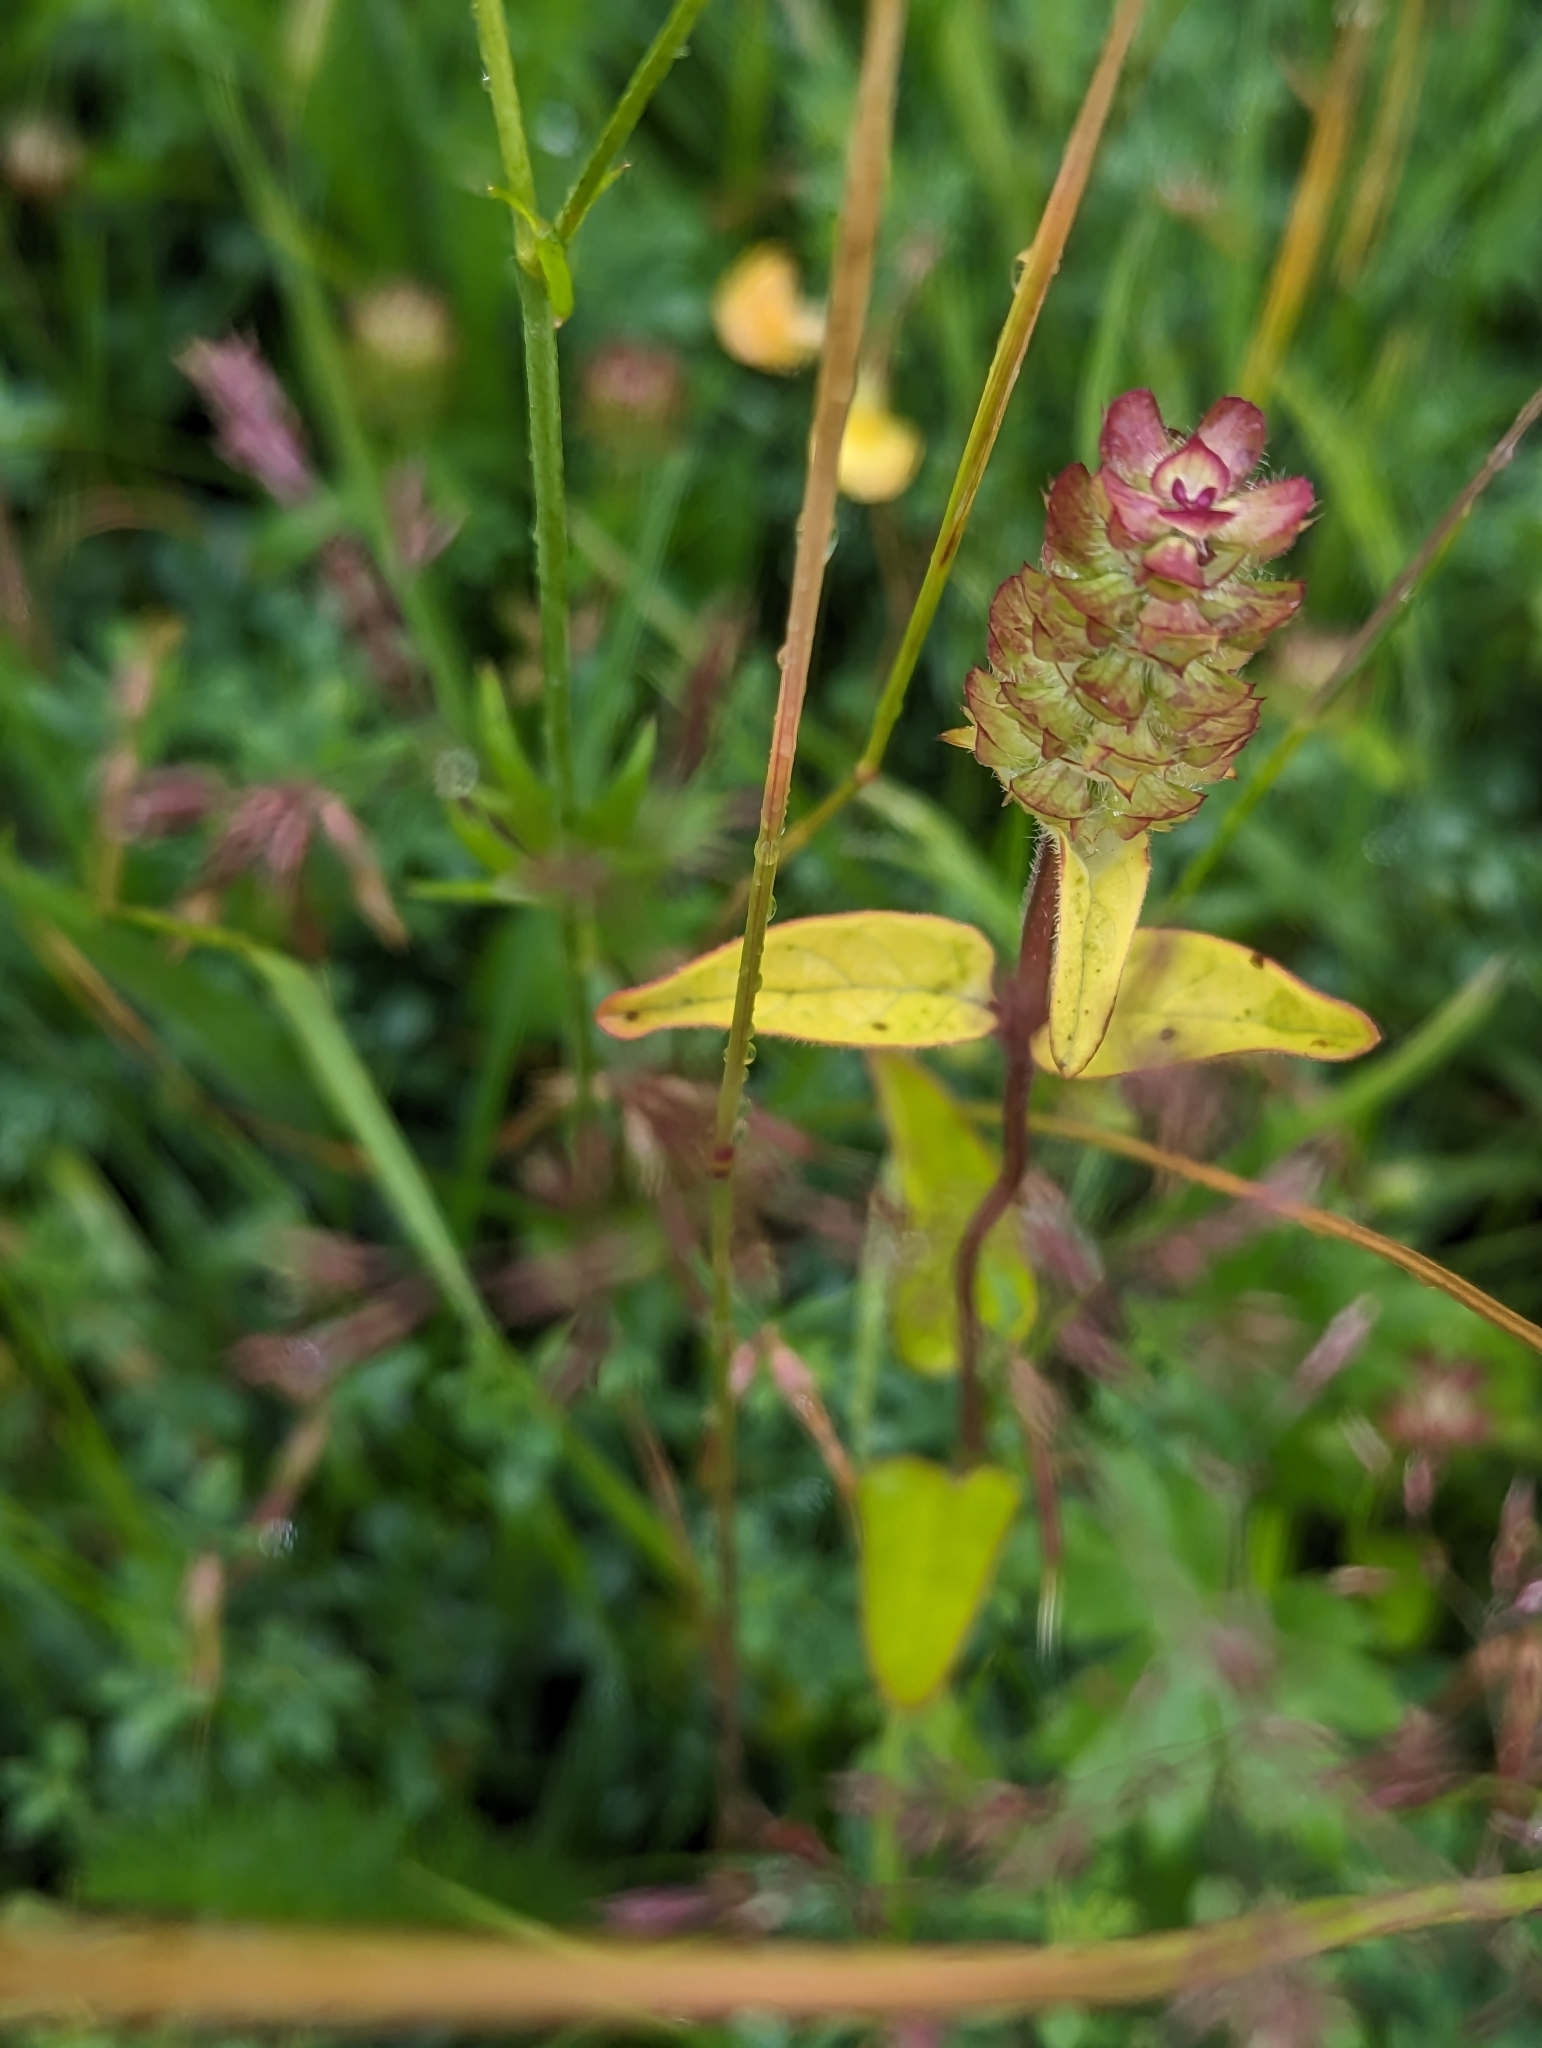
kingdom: Plantae
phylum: Tracheophyta
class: Magnoliopsida
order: Lamiales
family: Lamiaceae
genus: Prunella
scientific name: Prunella vulgaris
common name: Heal-all
